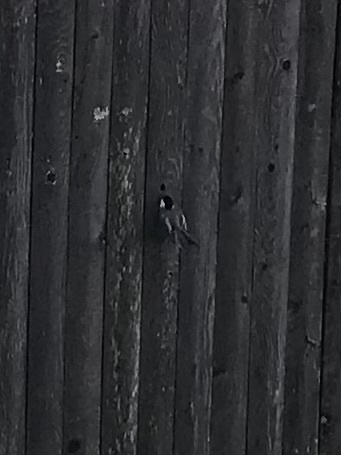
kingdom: Animalia
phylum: Chordata
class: Aves
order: Passeriformes
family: Paridae
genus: Poecile
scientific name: Poecile atricapillus
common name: Black-capped chickadee
